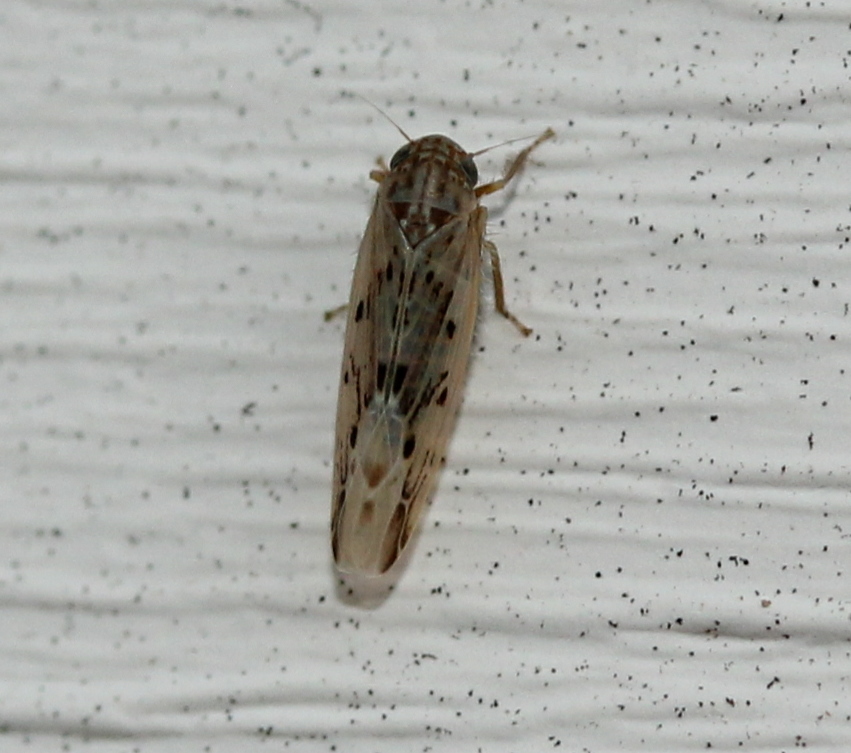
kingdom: Animalia
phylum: Arthropoda
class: Insecta
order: Hemiptera
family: Cicadellidae
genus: Balclutha
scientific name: Balclutha confluens
